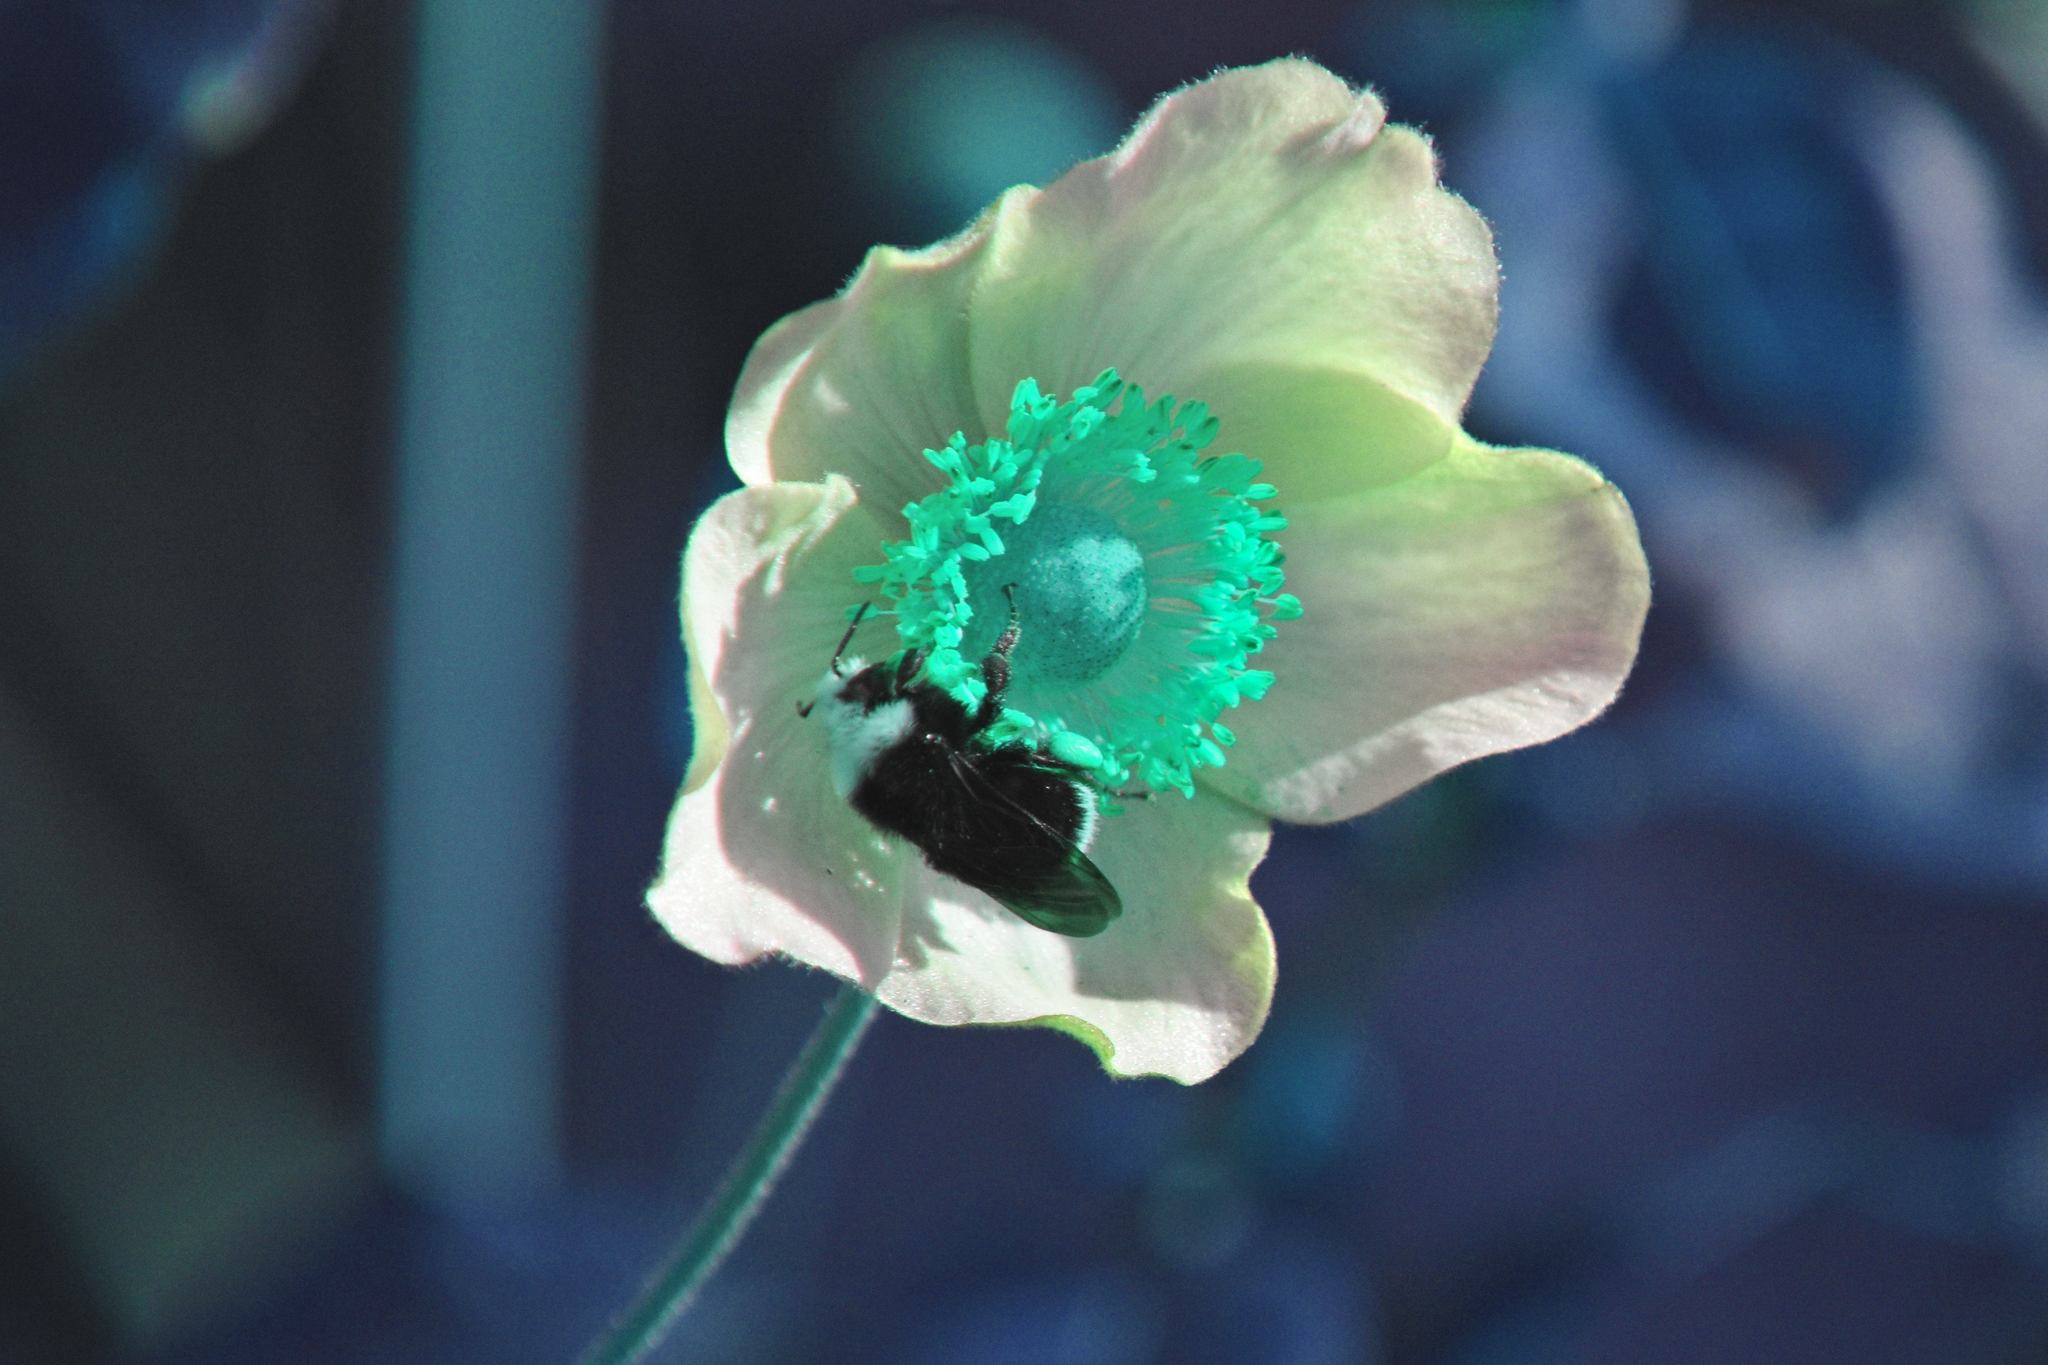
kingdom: Animalia
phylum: Arthropoda
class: Insecta
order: Hymenoptera
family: Apidae
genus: Pyrobombus
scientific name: Pyrobombus
